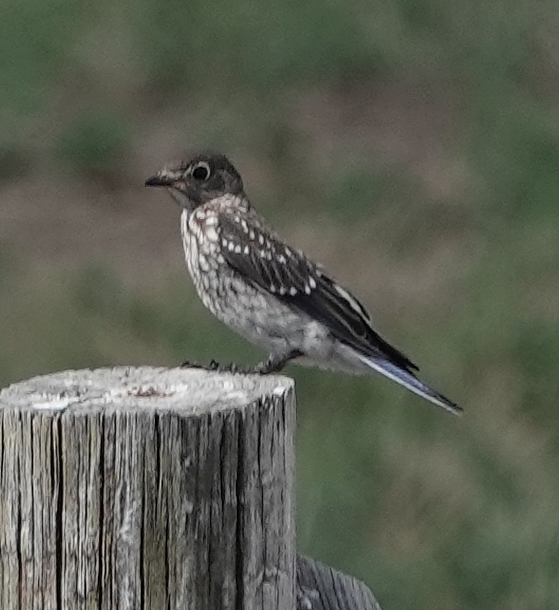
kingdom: Animalia
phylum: Chordata
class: Aves
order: Passeriformes
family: Turdidae
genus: Sialia
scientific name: Sialia sialis
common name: Eastern bluebird
